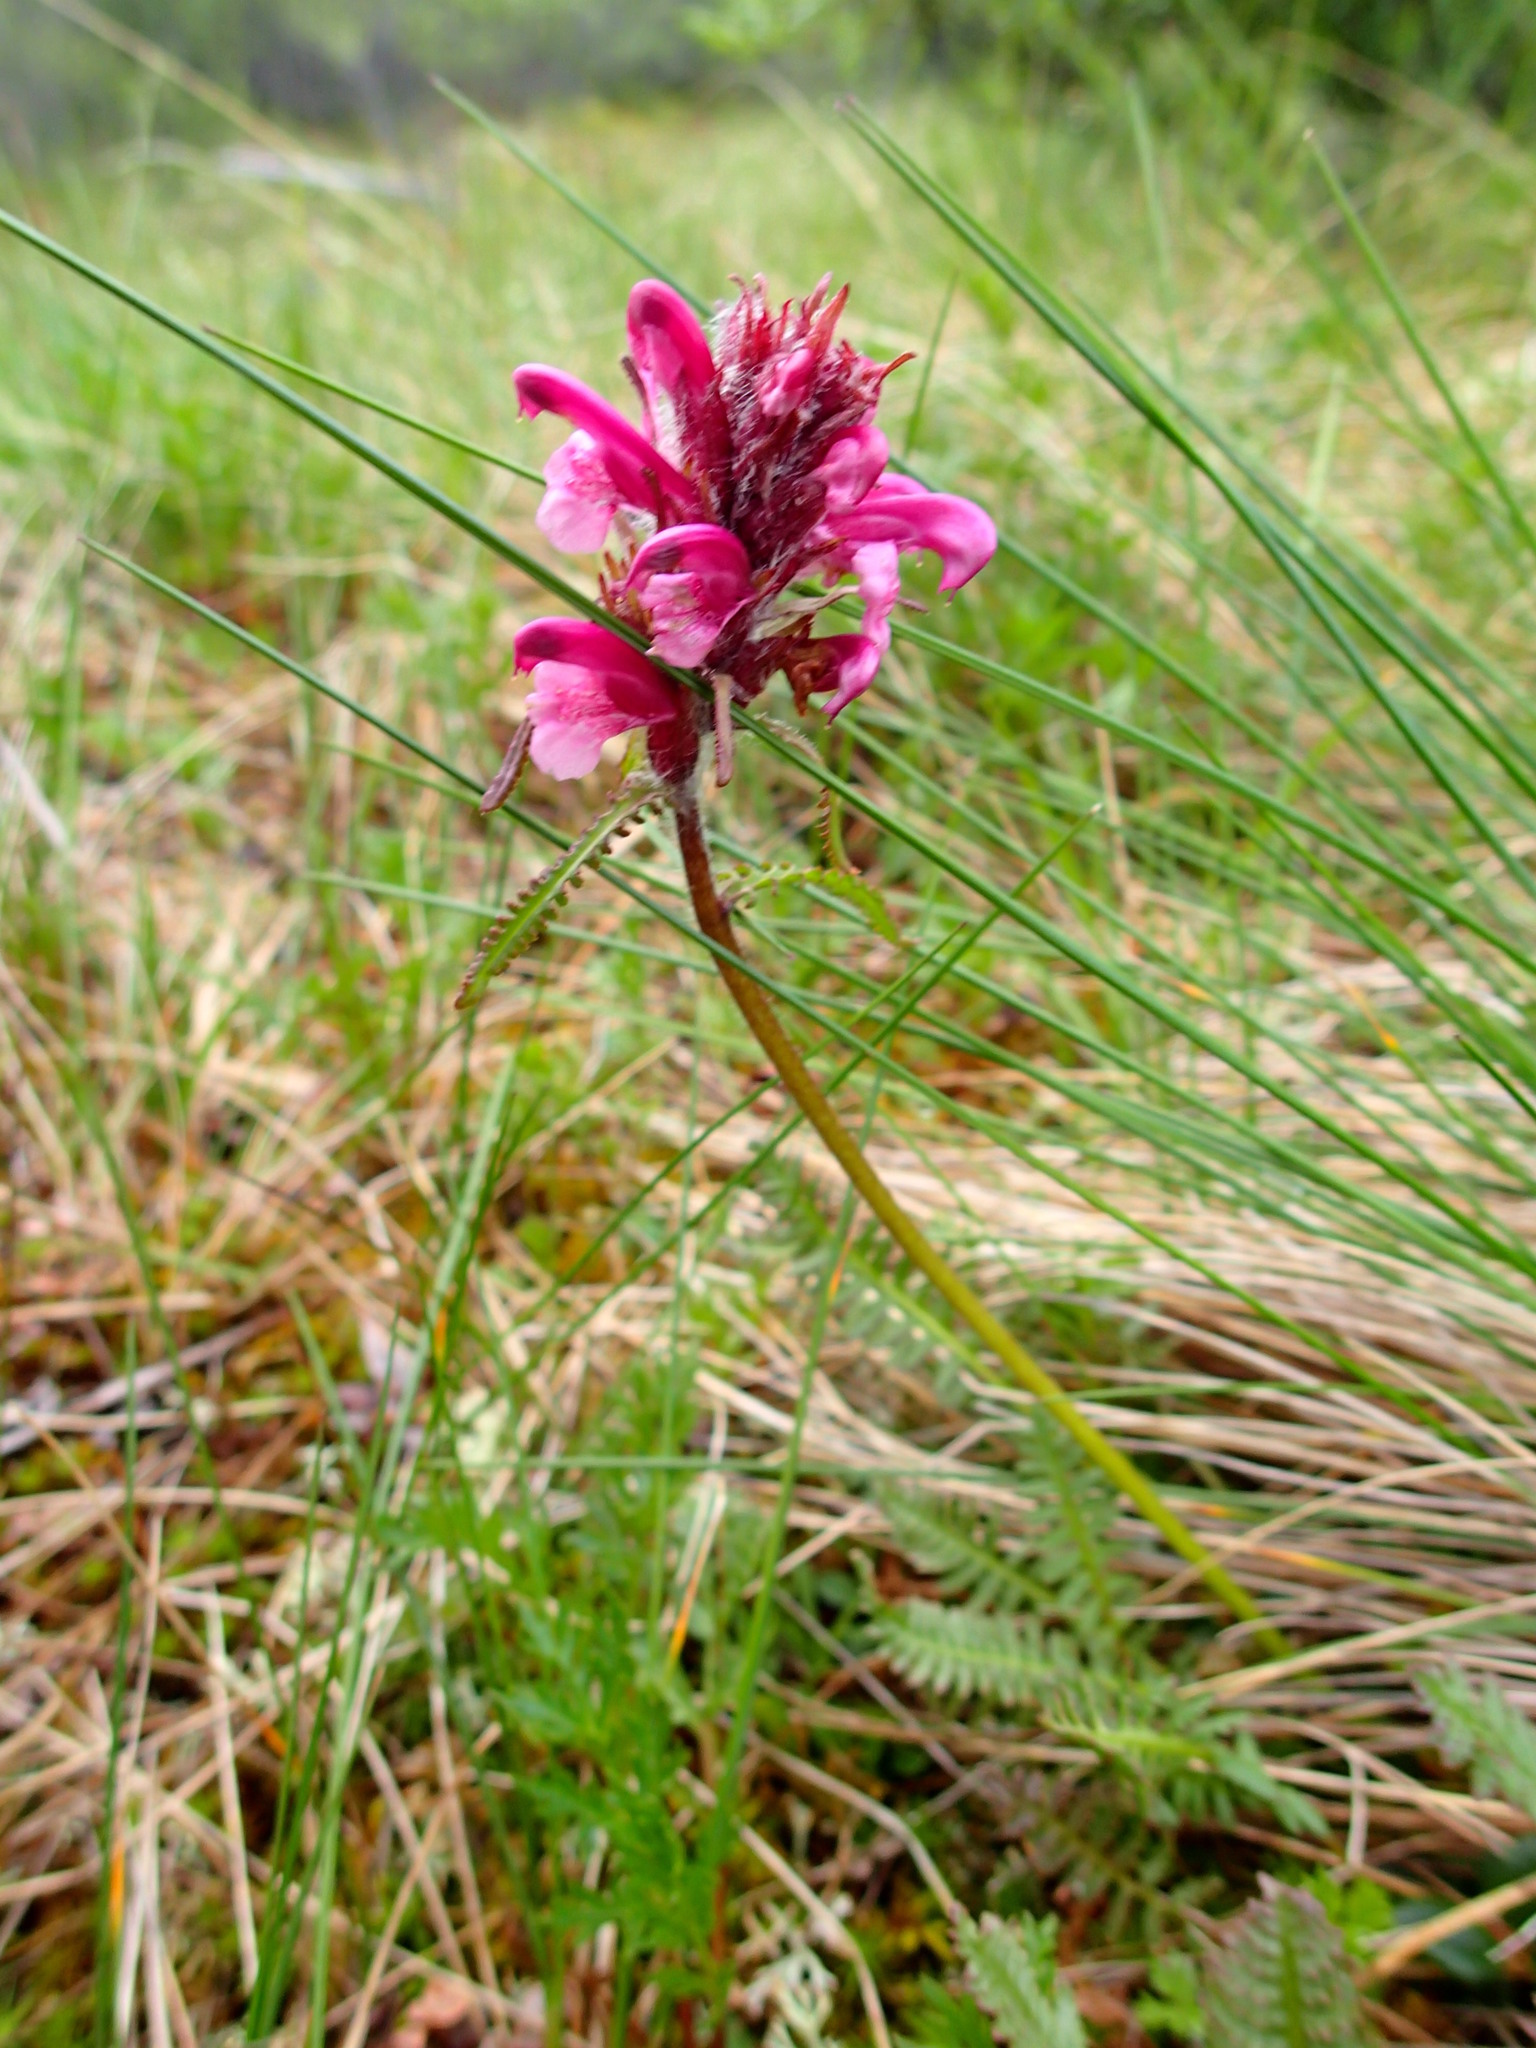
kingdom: Plantae
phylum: Tracheophyta
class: Magnoliopsida
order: Lamiales
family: Orobanchaceae
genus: Pedicularis
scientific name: Pedicularis interior
